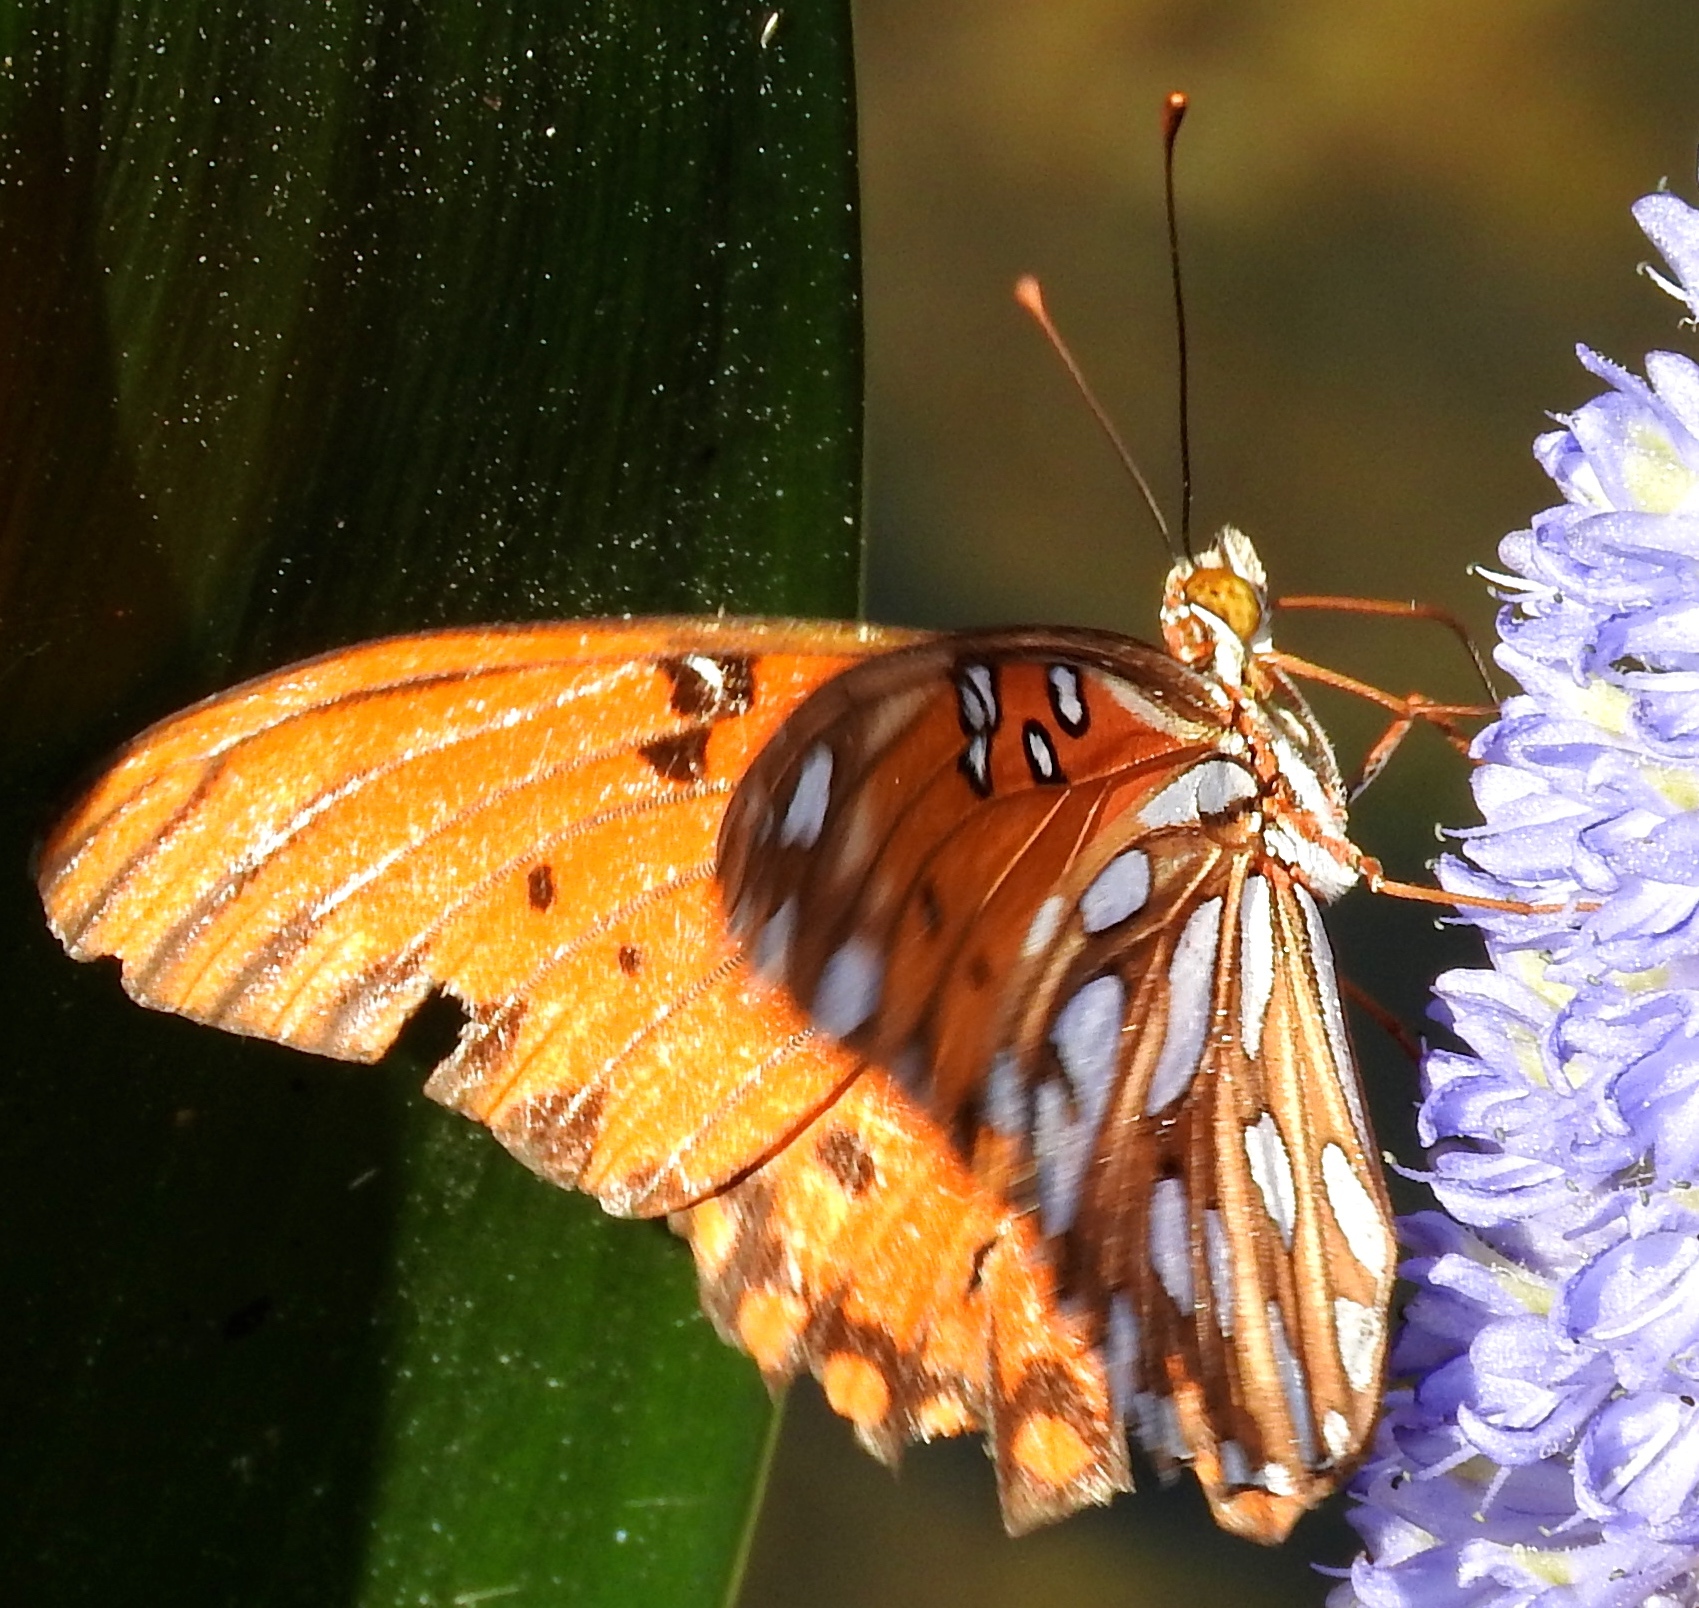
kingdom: Animalia
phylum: Arthropoda
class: Insecta
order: Lepidoptera
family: Nymphalidae
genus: Dione
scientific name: Dione vanillae
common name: Gulf fritillary
